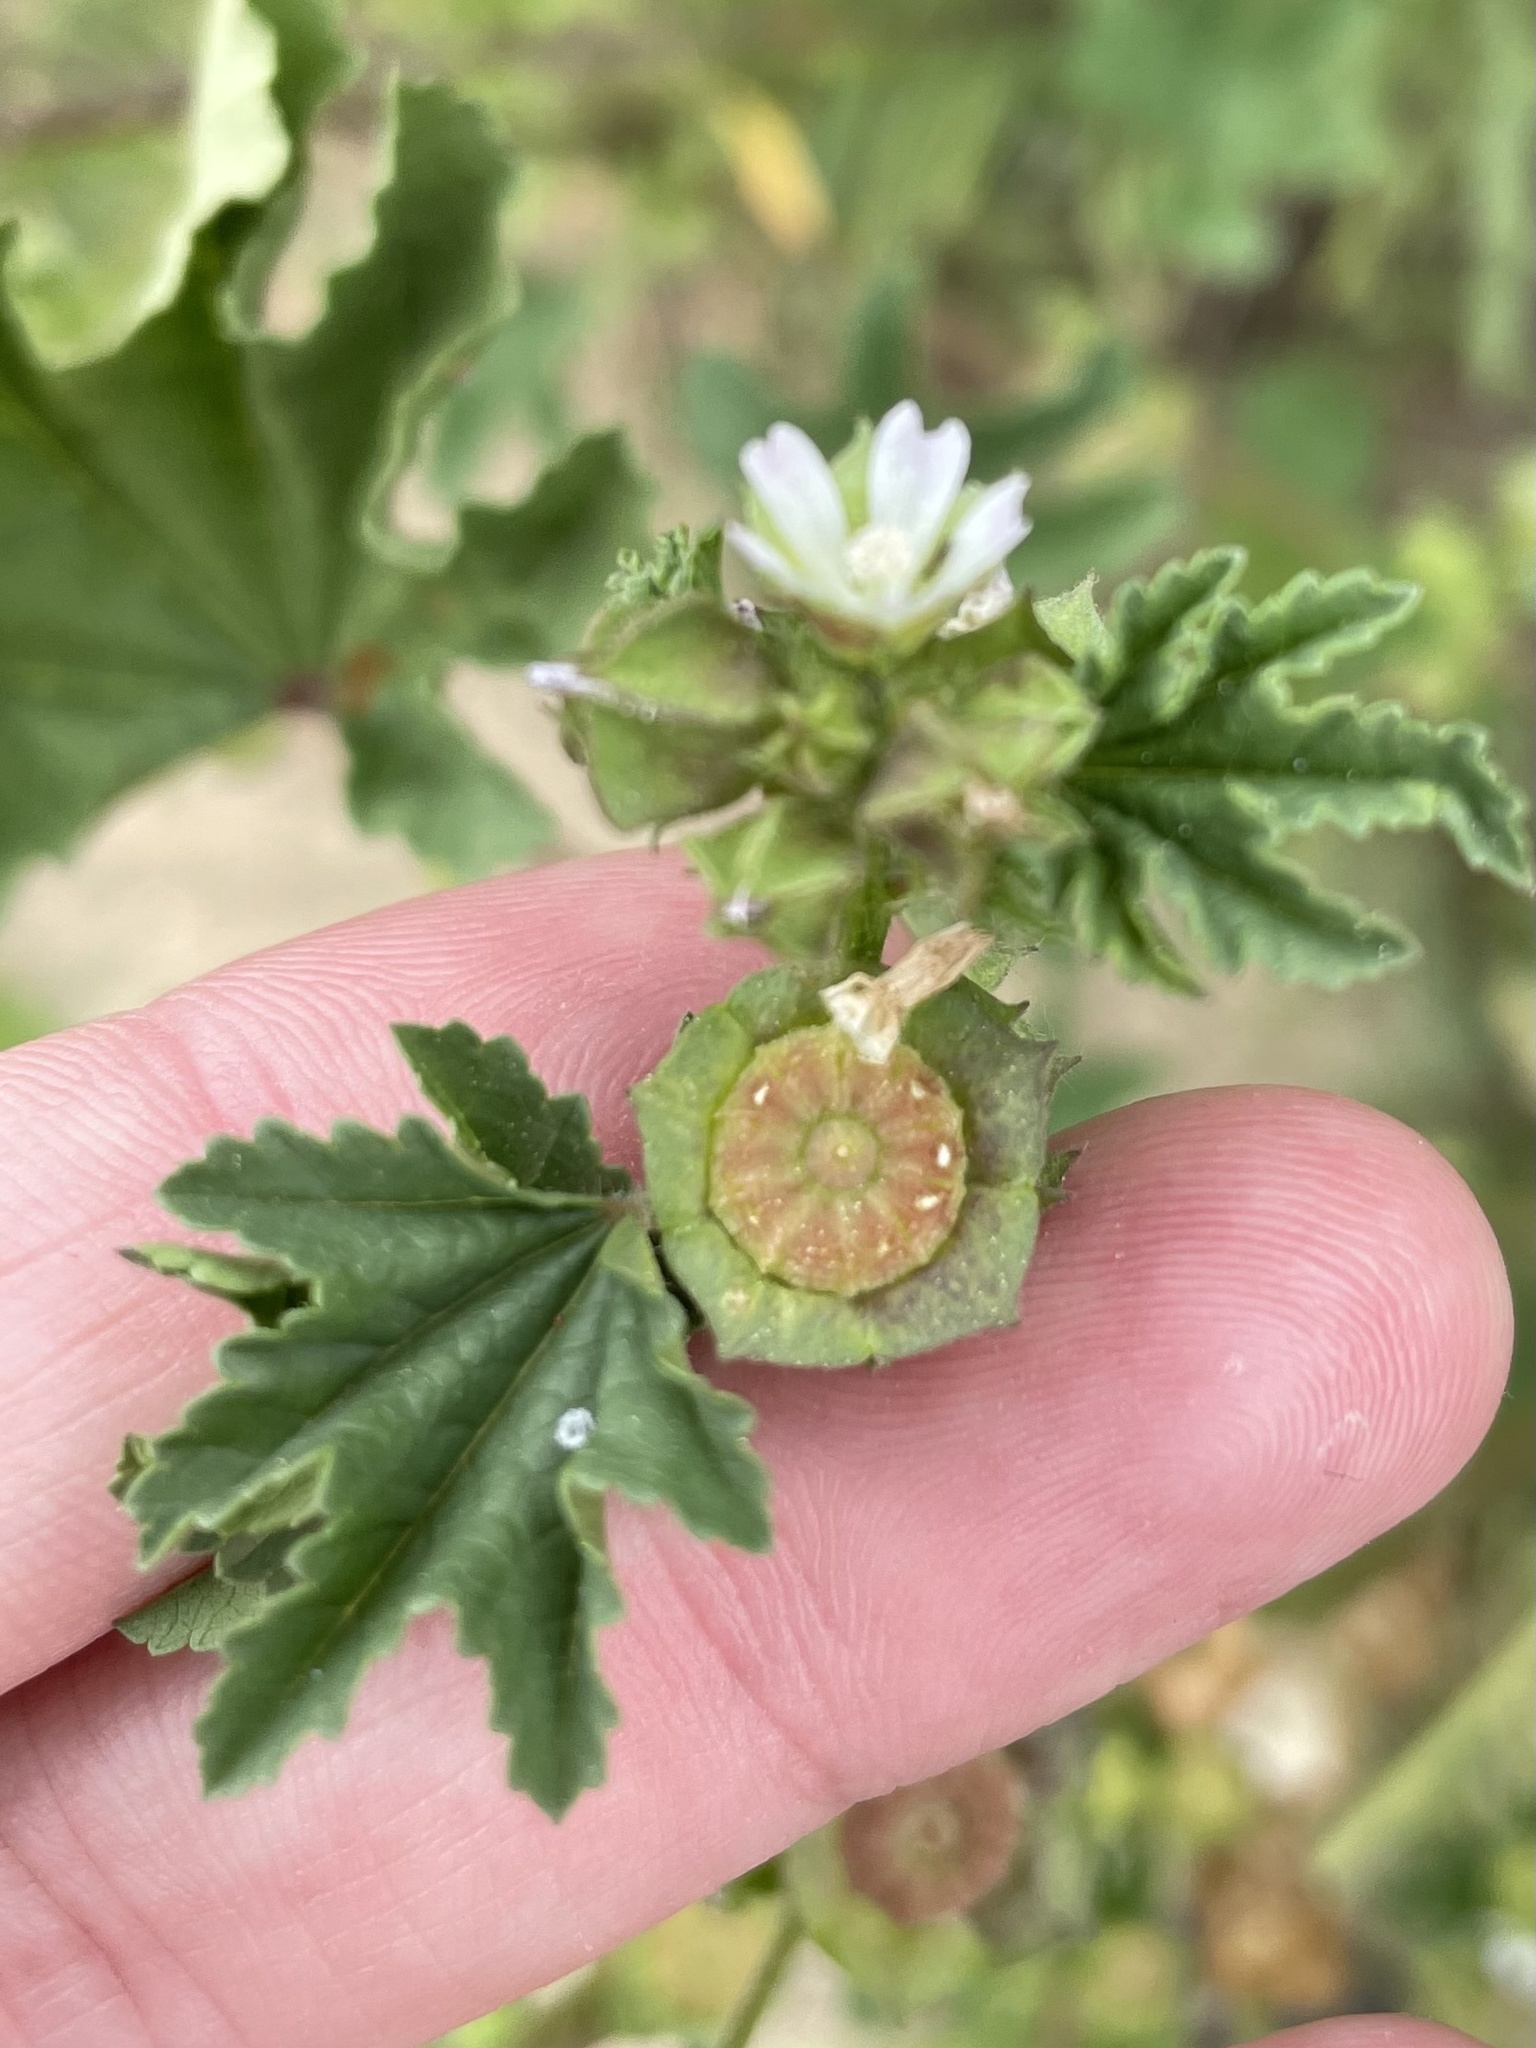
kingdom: Plantae
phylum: Tracheophyta
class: Magnoliopsida
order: Malvales
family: Malvaceae
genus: Malva
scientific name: Malva parviflora
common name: Least mallow
